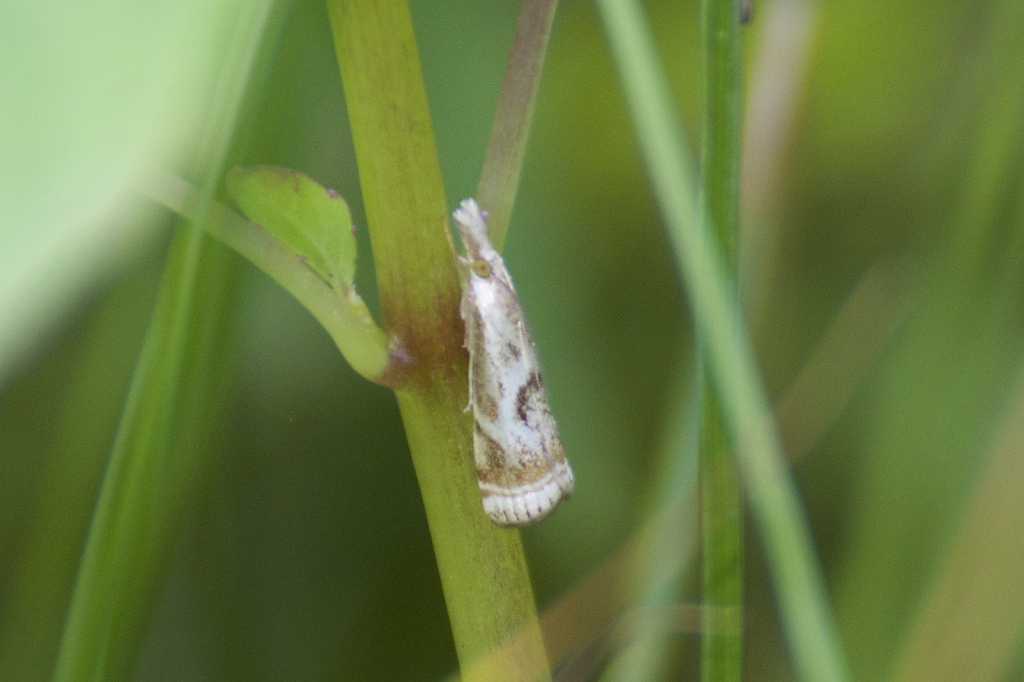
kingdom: Animalia
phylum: Arthropoda
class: Insecta
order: Lepidoptera
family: Crambidae
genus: Microcrambus
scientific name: Microcrambus elegans
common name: Elegant grass-veneer
